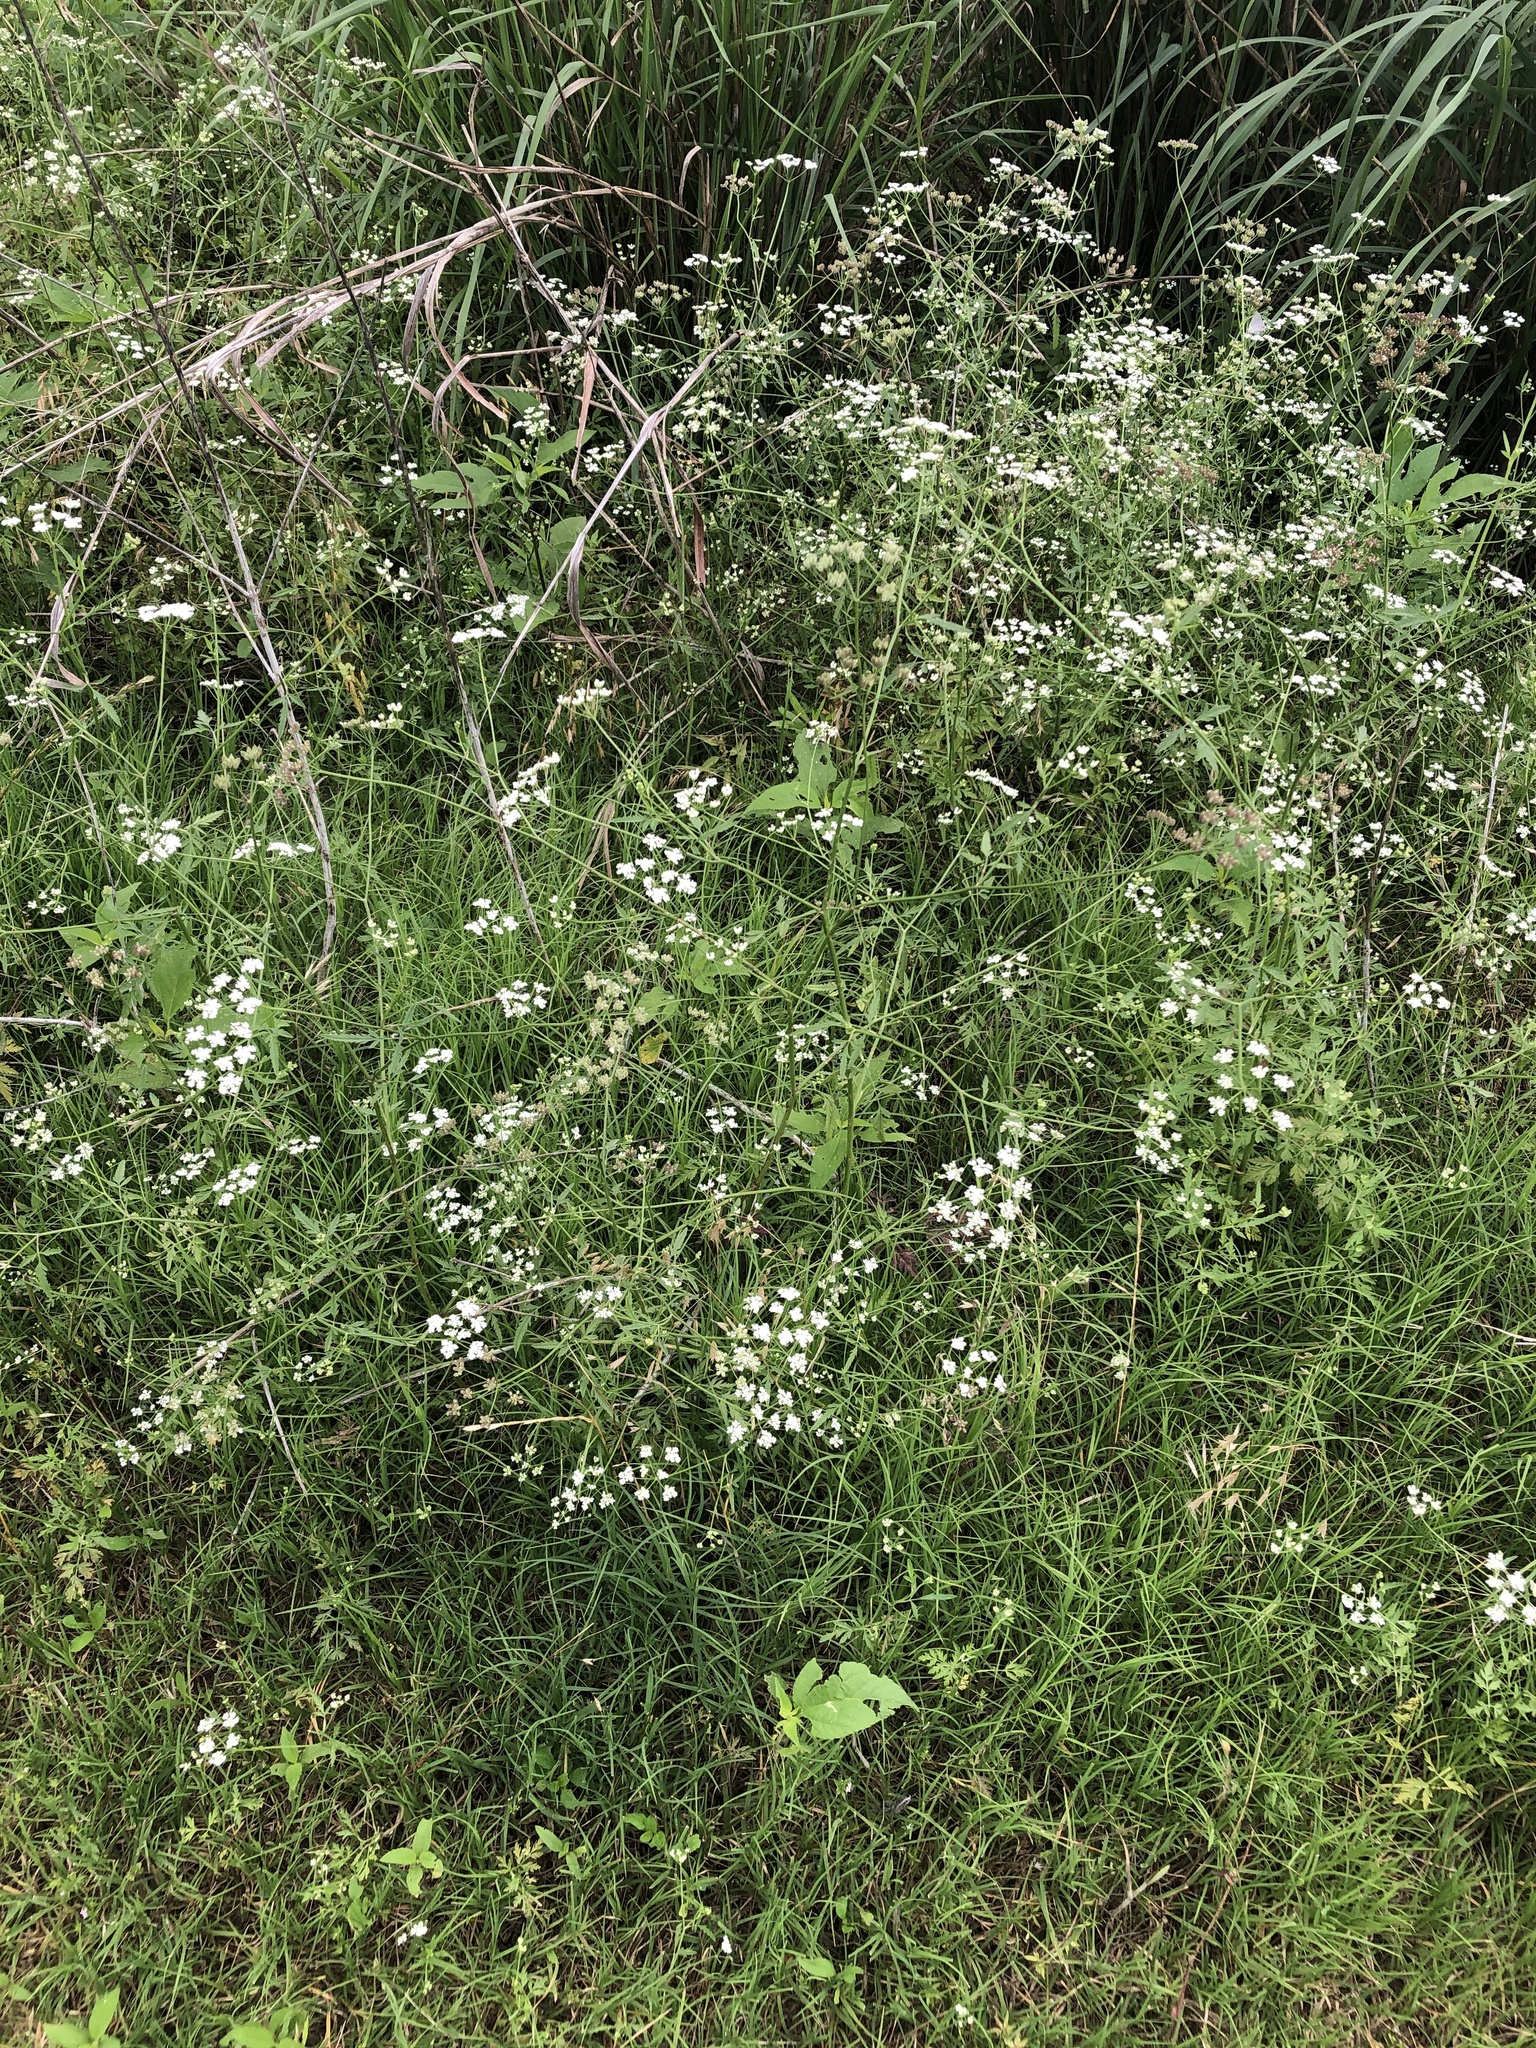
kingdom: Plantae
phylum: Tracheophyta
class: Magnoliopsida
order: Apiales
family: Apiaceae
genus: Torilis
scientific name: Torilis arvensis
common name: Spreading hedge-parsley
